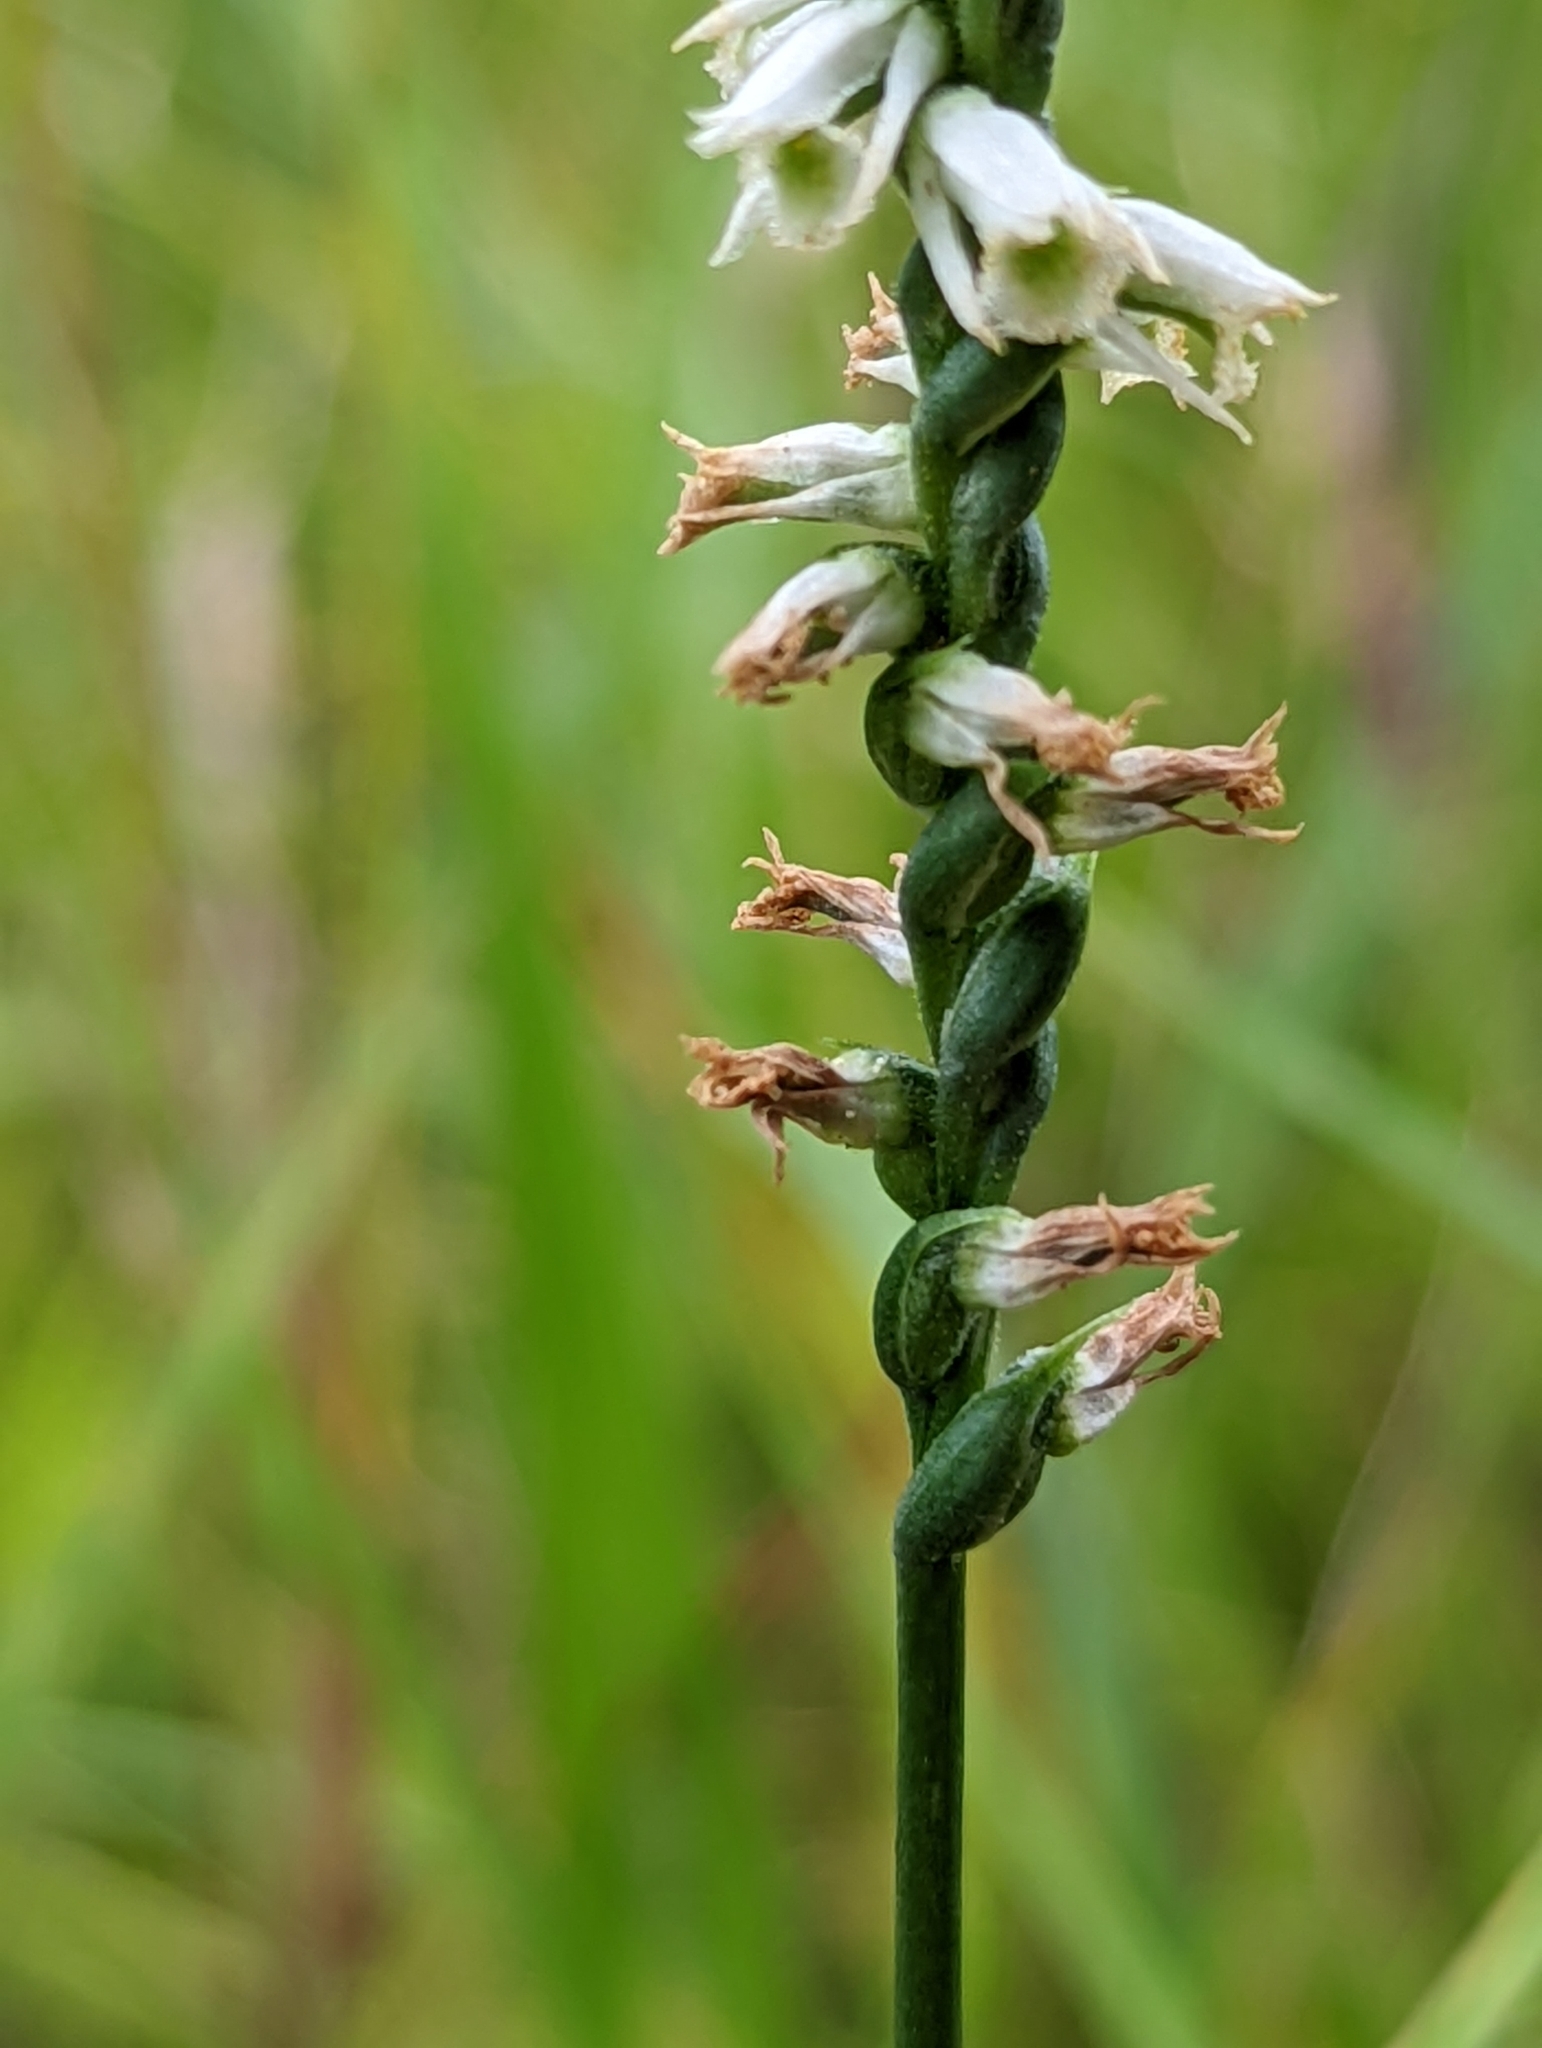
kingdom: Plantae
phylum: Tracheophyta
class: Liliopsida
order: Asparagales
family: Orchidaceae
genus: Spiranthes
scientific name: Spiranthes lacera
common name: Northern slender ladies'-tresses
